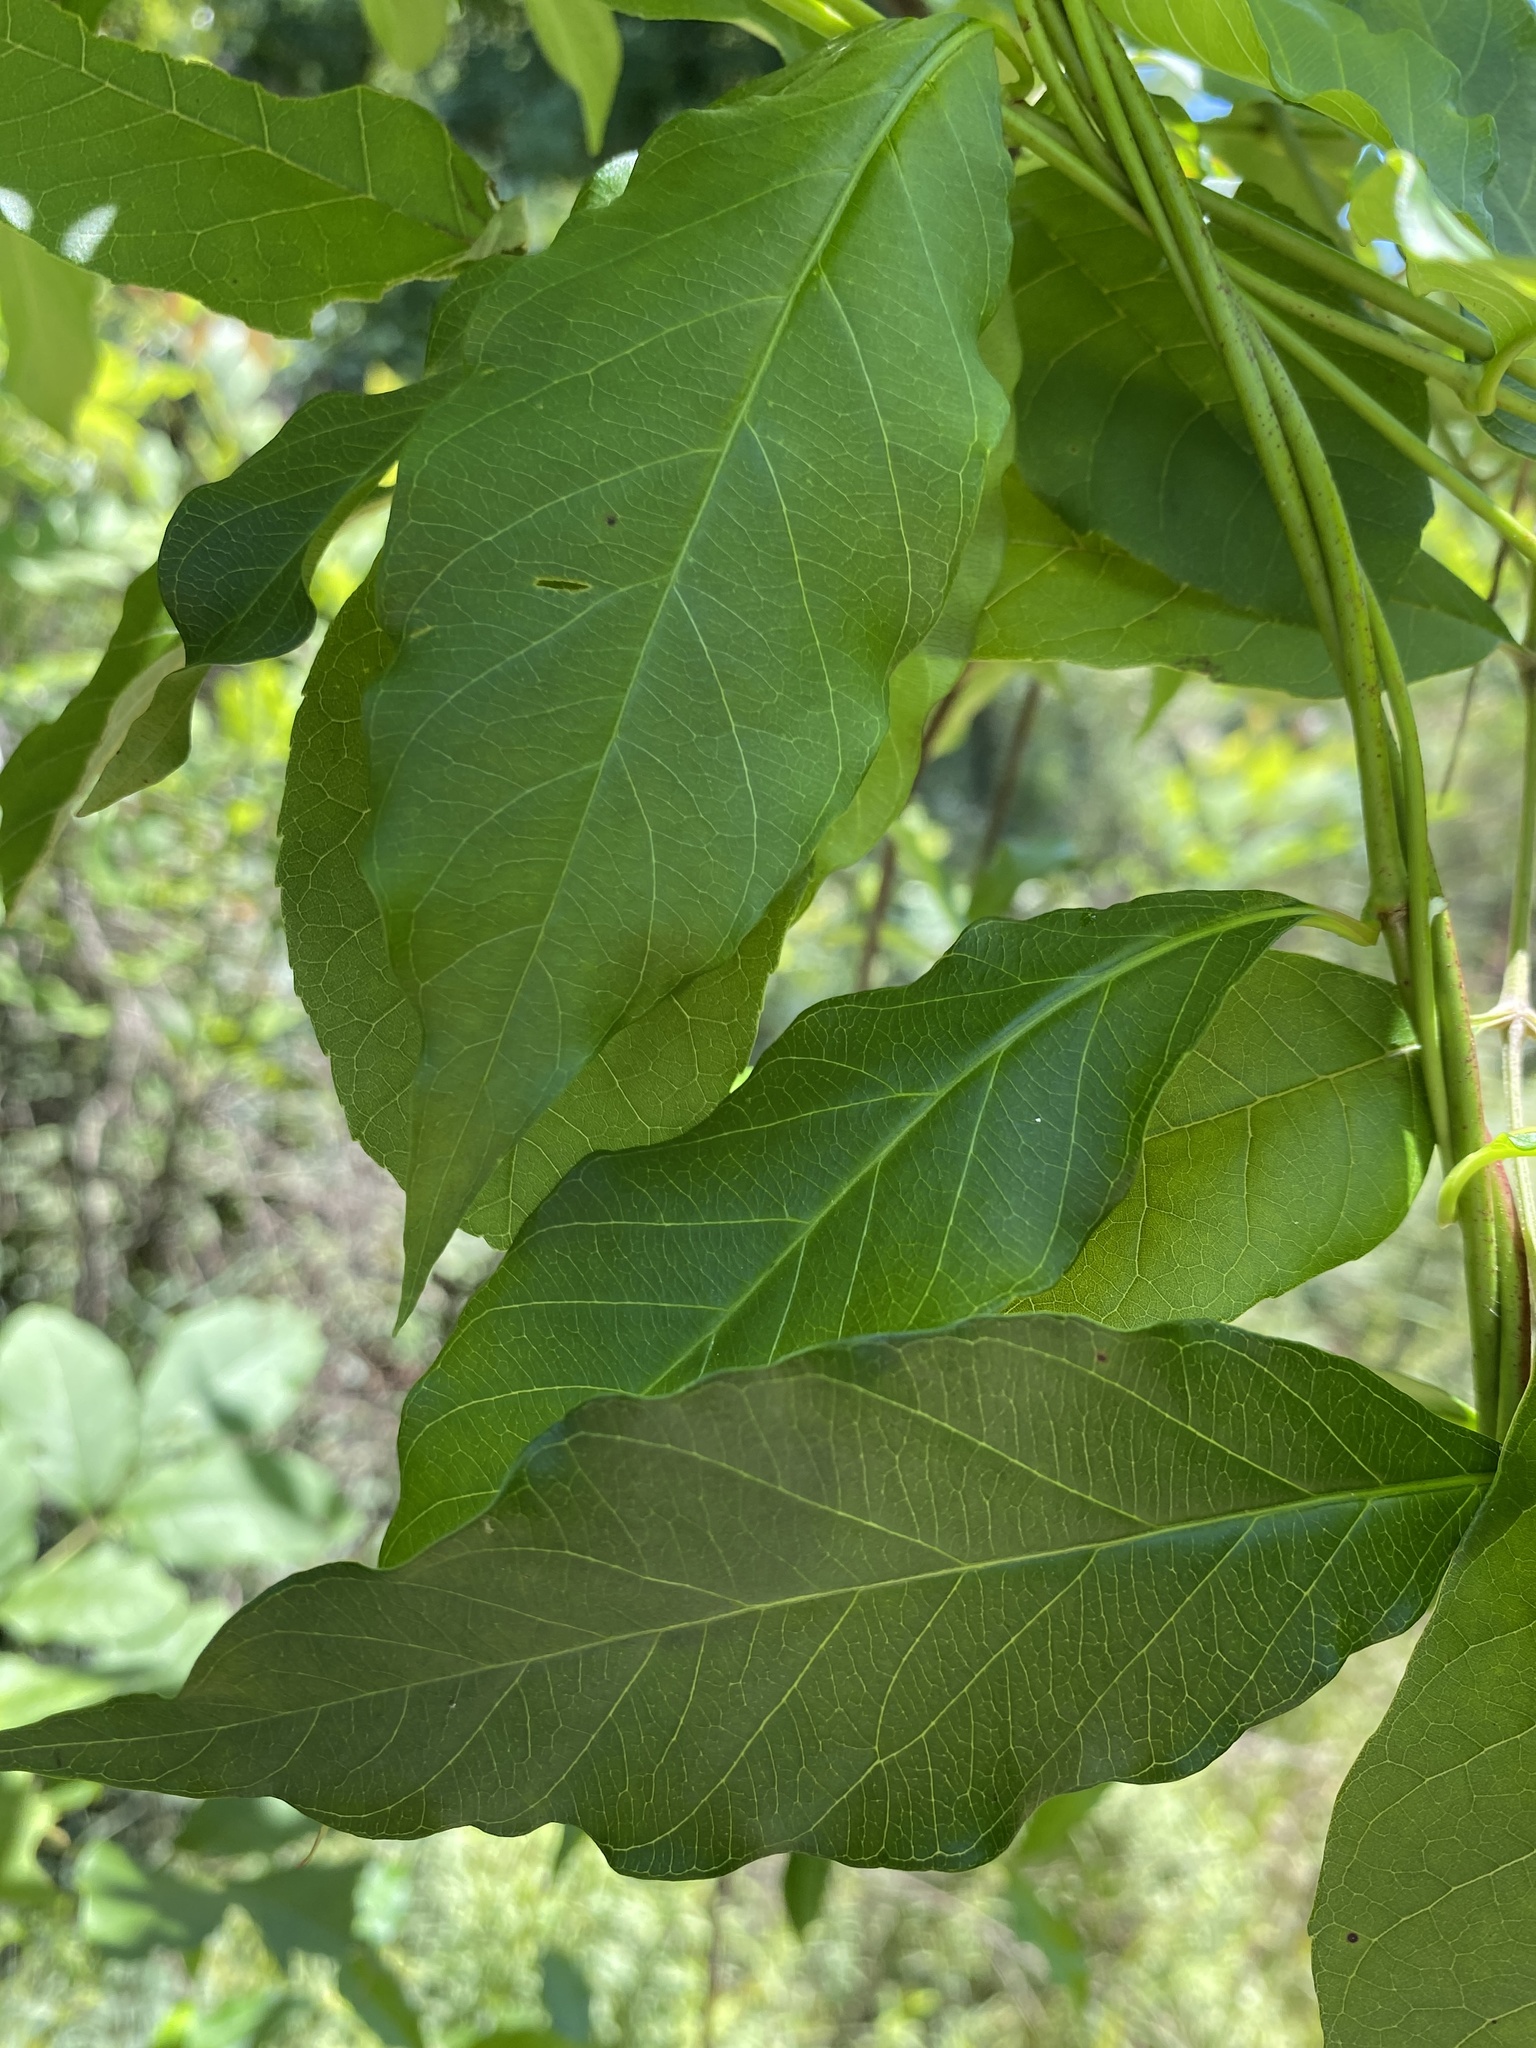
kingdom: Plantae
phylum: Tracheophyta
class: Magnoliopsida
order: Gentianales
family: Apocynaceae
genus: Thyrsanthella
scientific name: Thyrsanthella difformis
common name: Climbing dogbane
